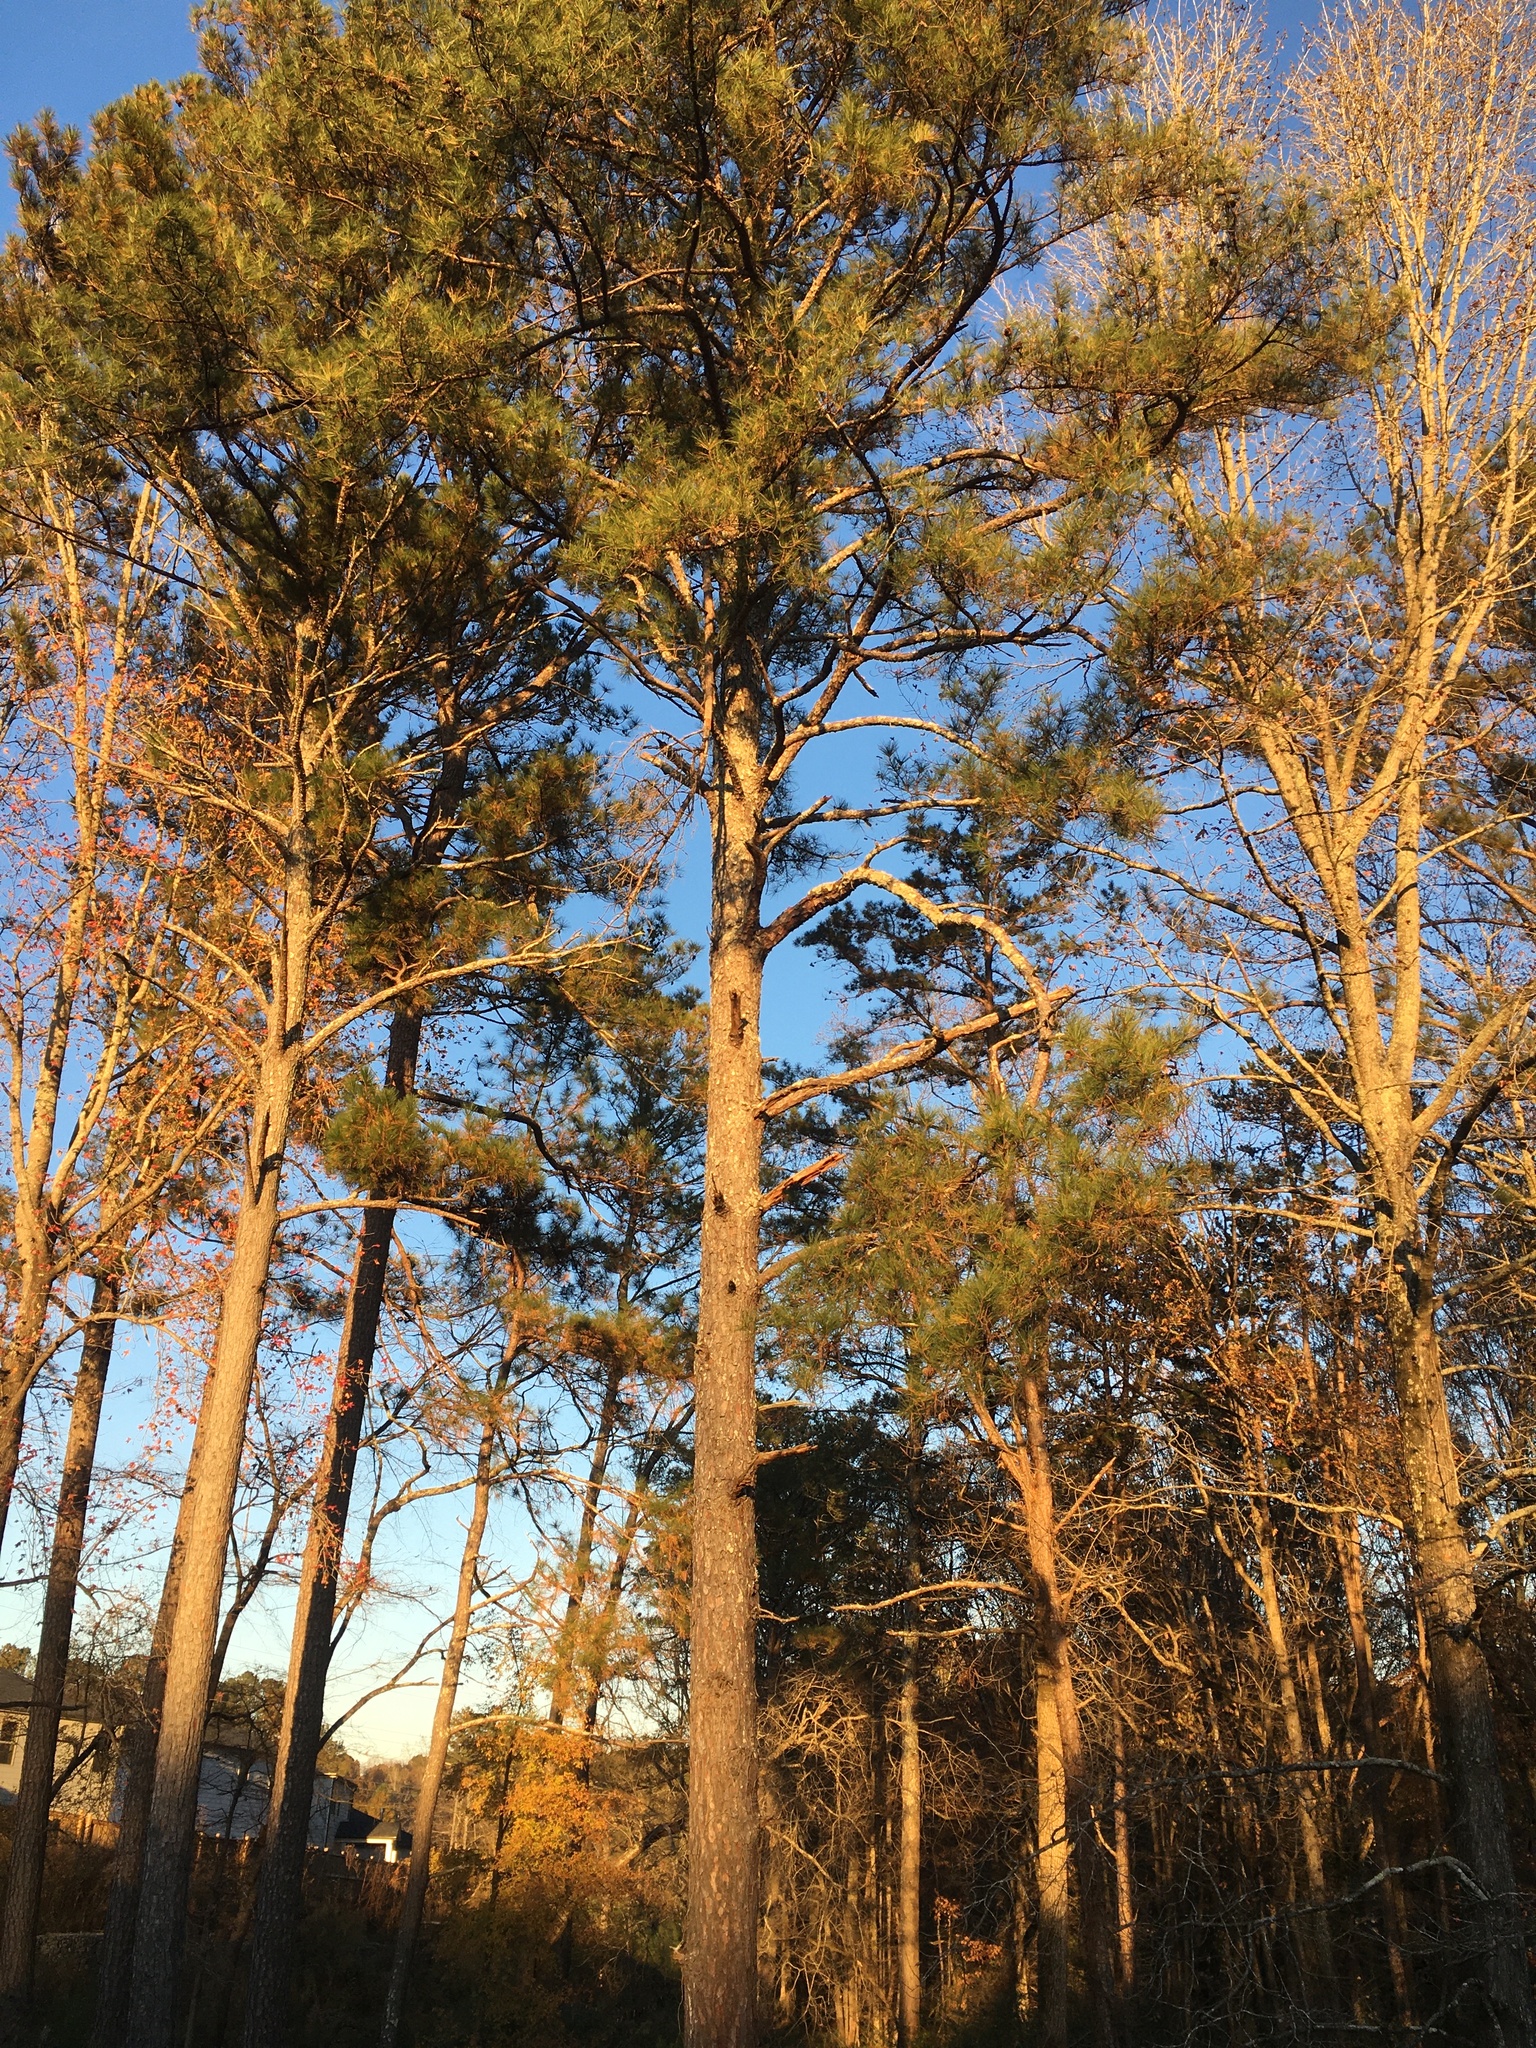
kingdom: Plantae
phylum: Tracheophyta
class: Pinopsida
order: Pinales
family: Pinaceae
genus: Pinus
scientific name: Pinus taeda
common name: Loblolly pine
